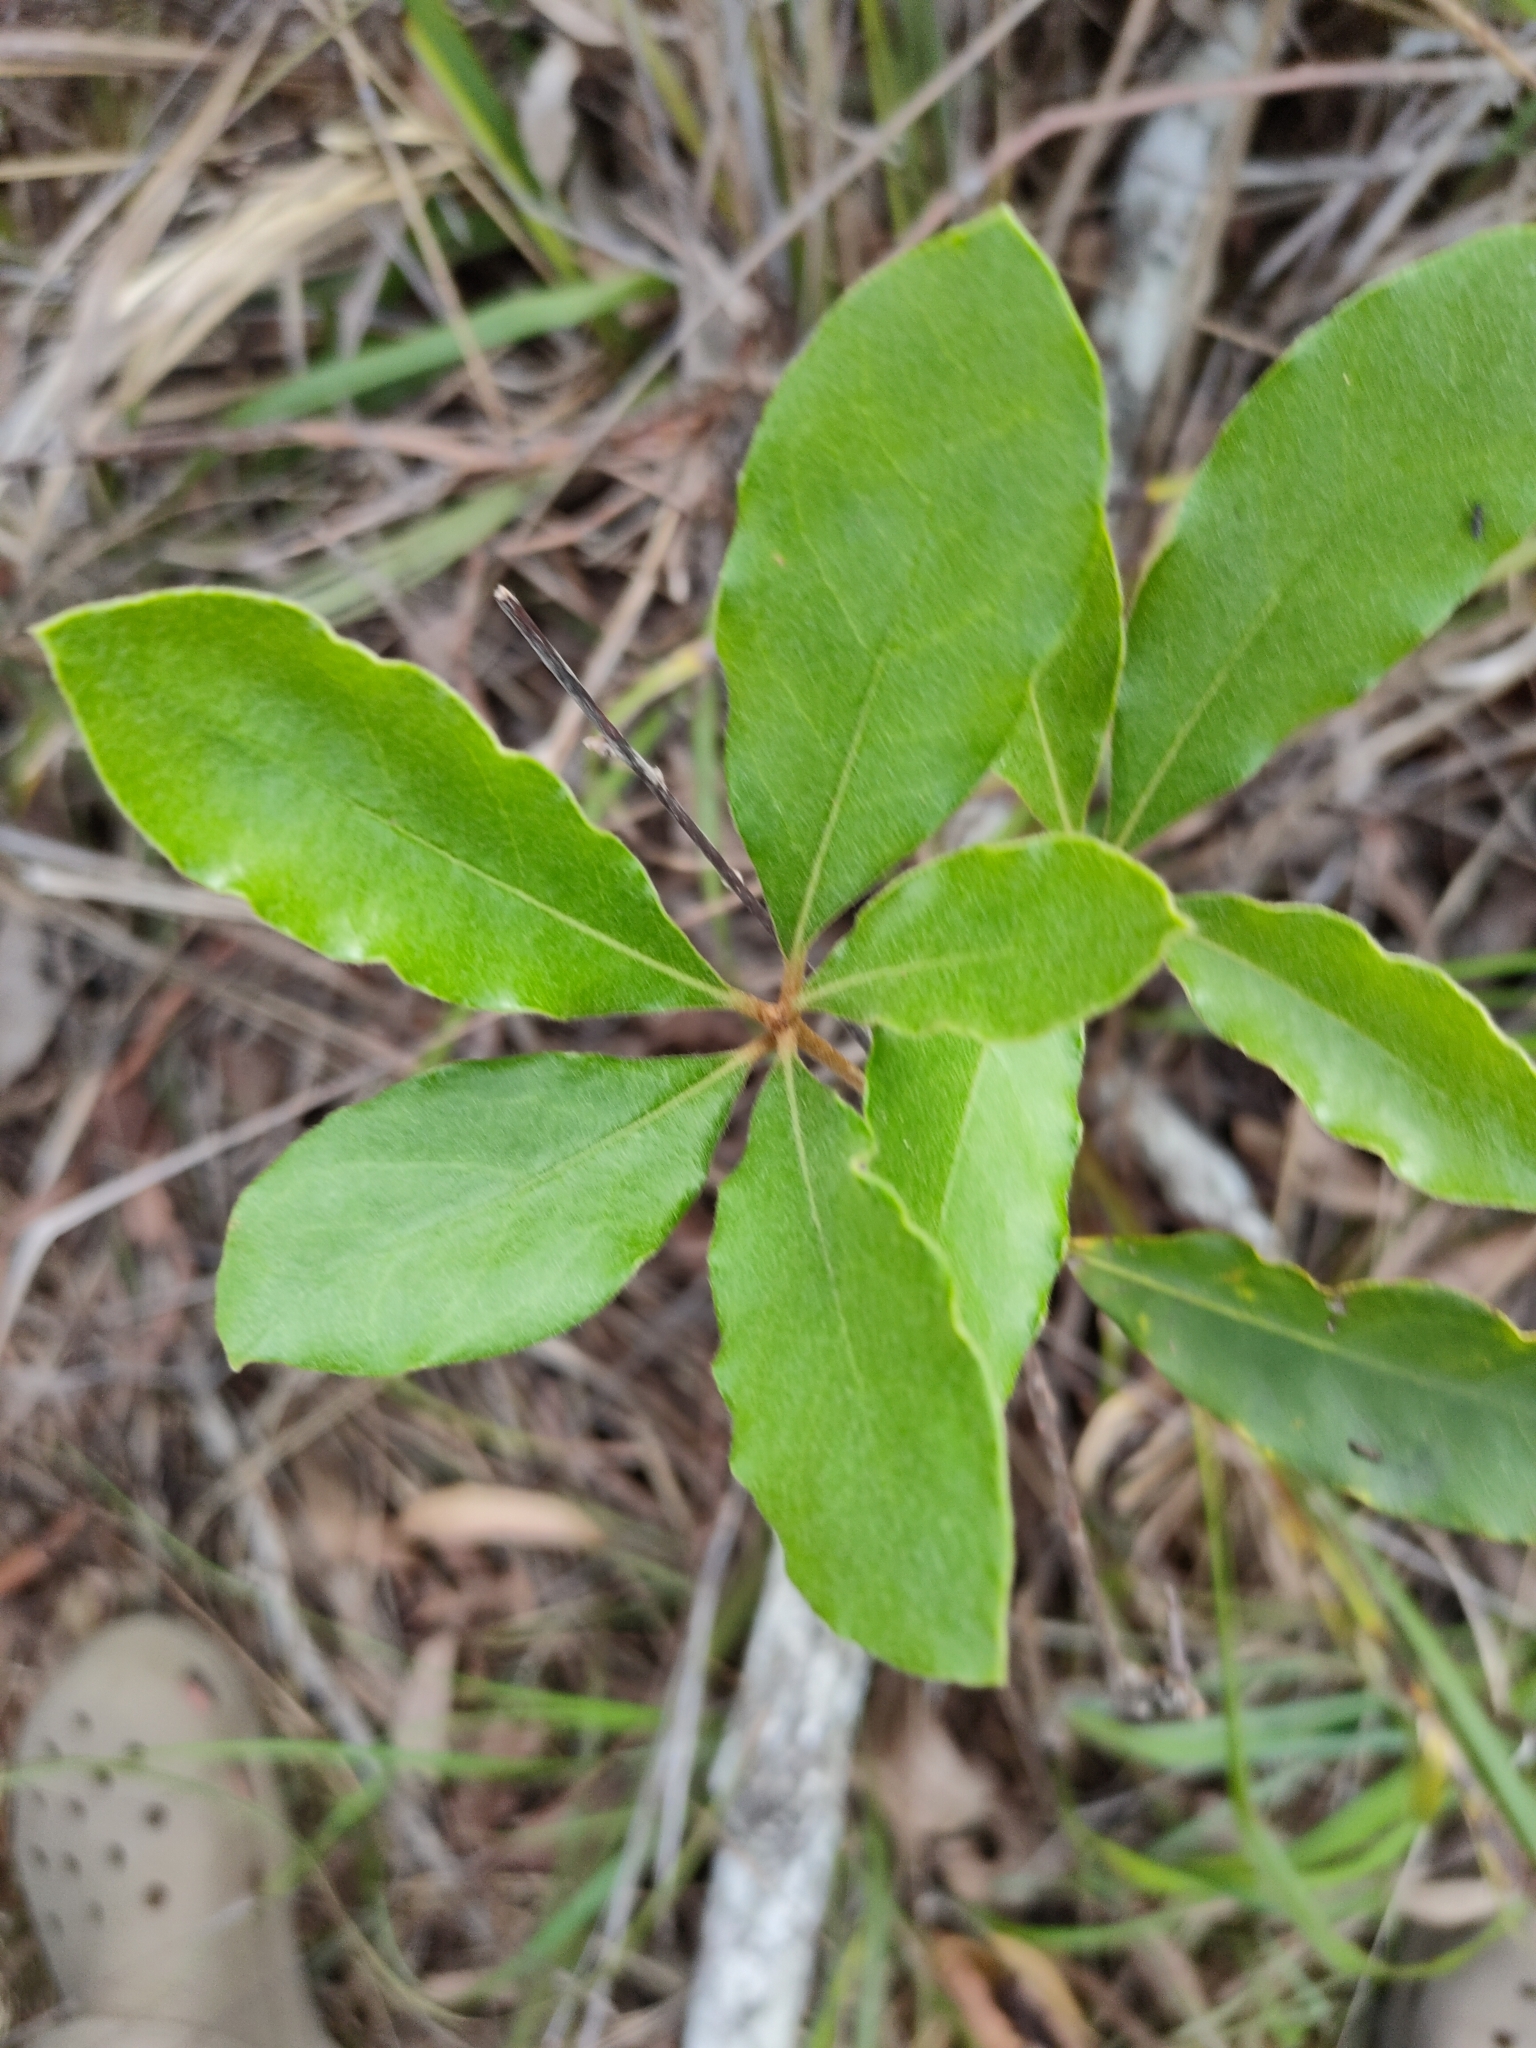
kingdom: Plantae
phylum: Tracheophyta
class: Magnoliopsida
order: Apiales
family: Pittosporaceae
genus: Pittosporum
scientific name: Pittosporum revolutum
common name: Brisbane-laurel
